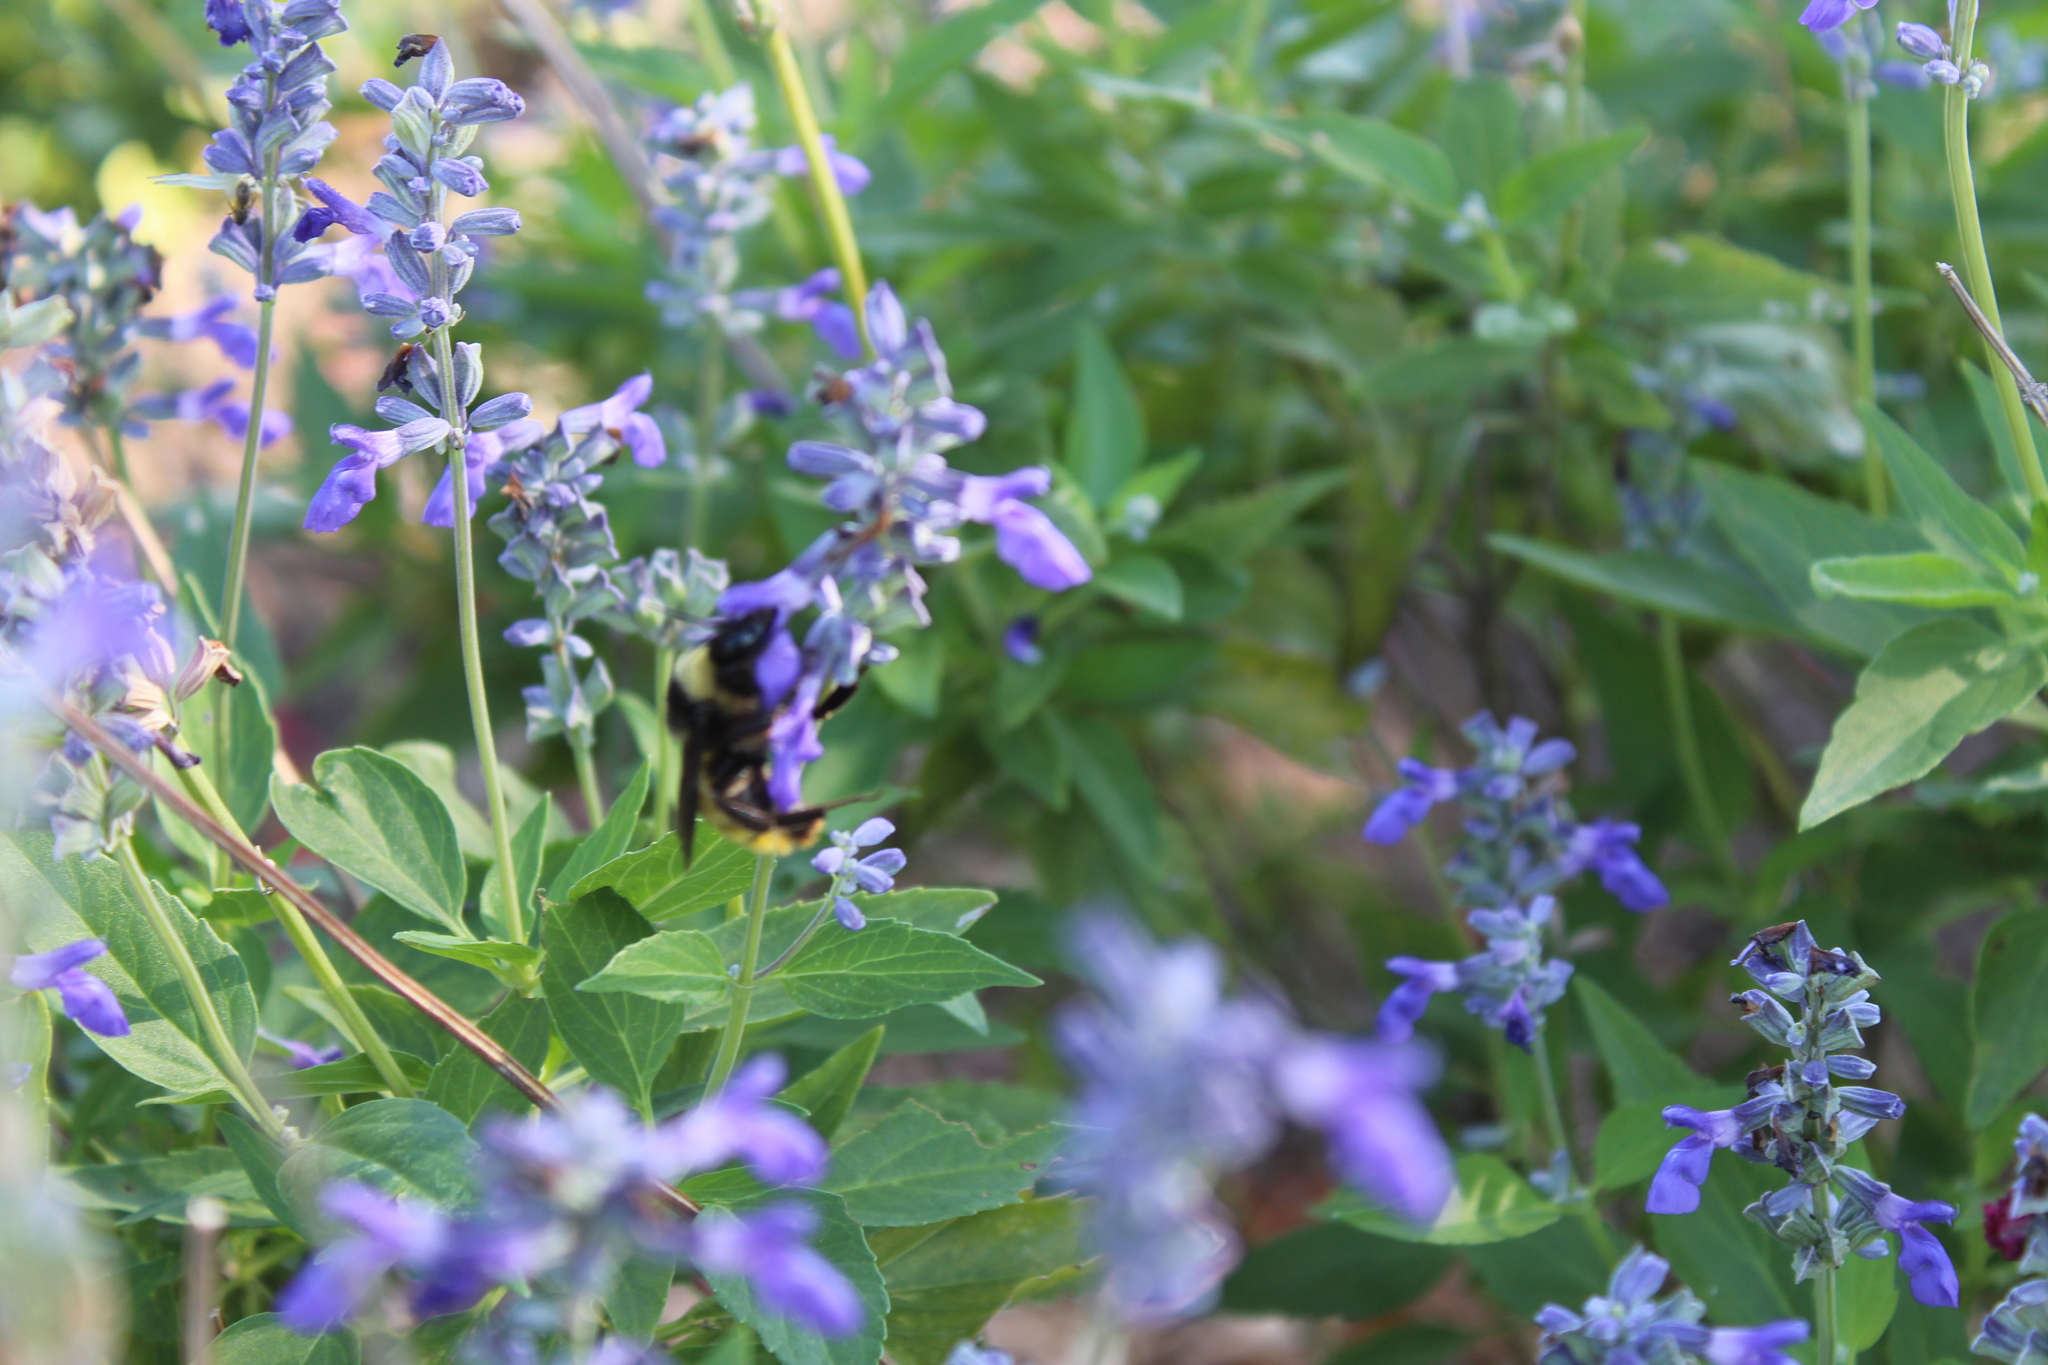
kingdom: Animalia
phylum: Arthropoda
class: Insecta
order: Hymenoptera
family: Apidae
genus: Bombus
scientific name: Bombus pensylvanicus
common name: Bumble bee
